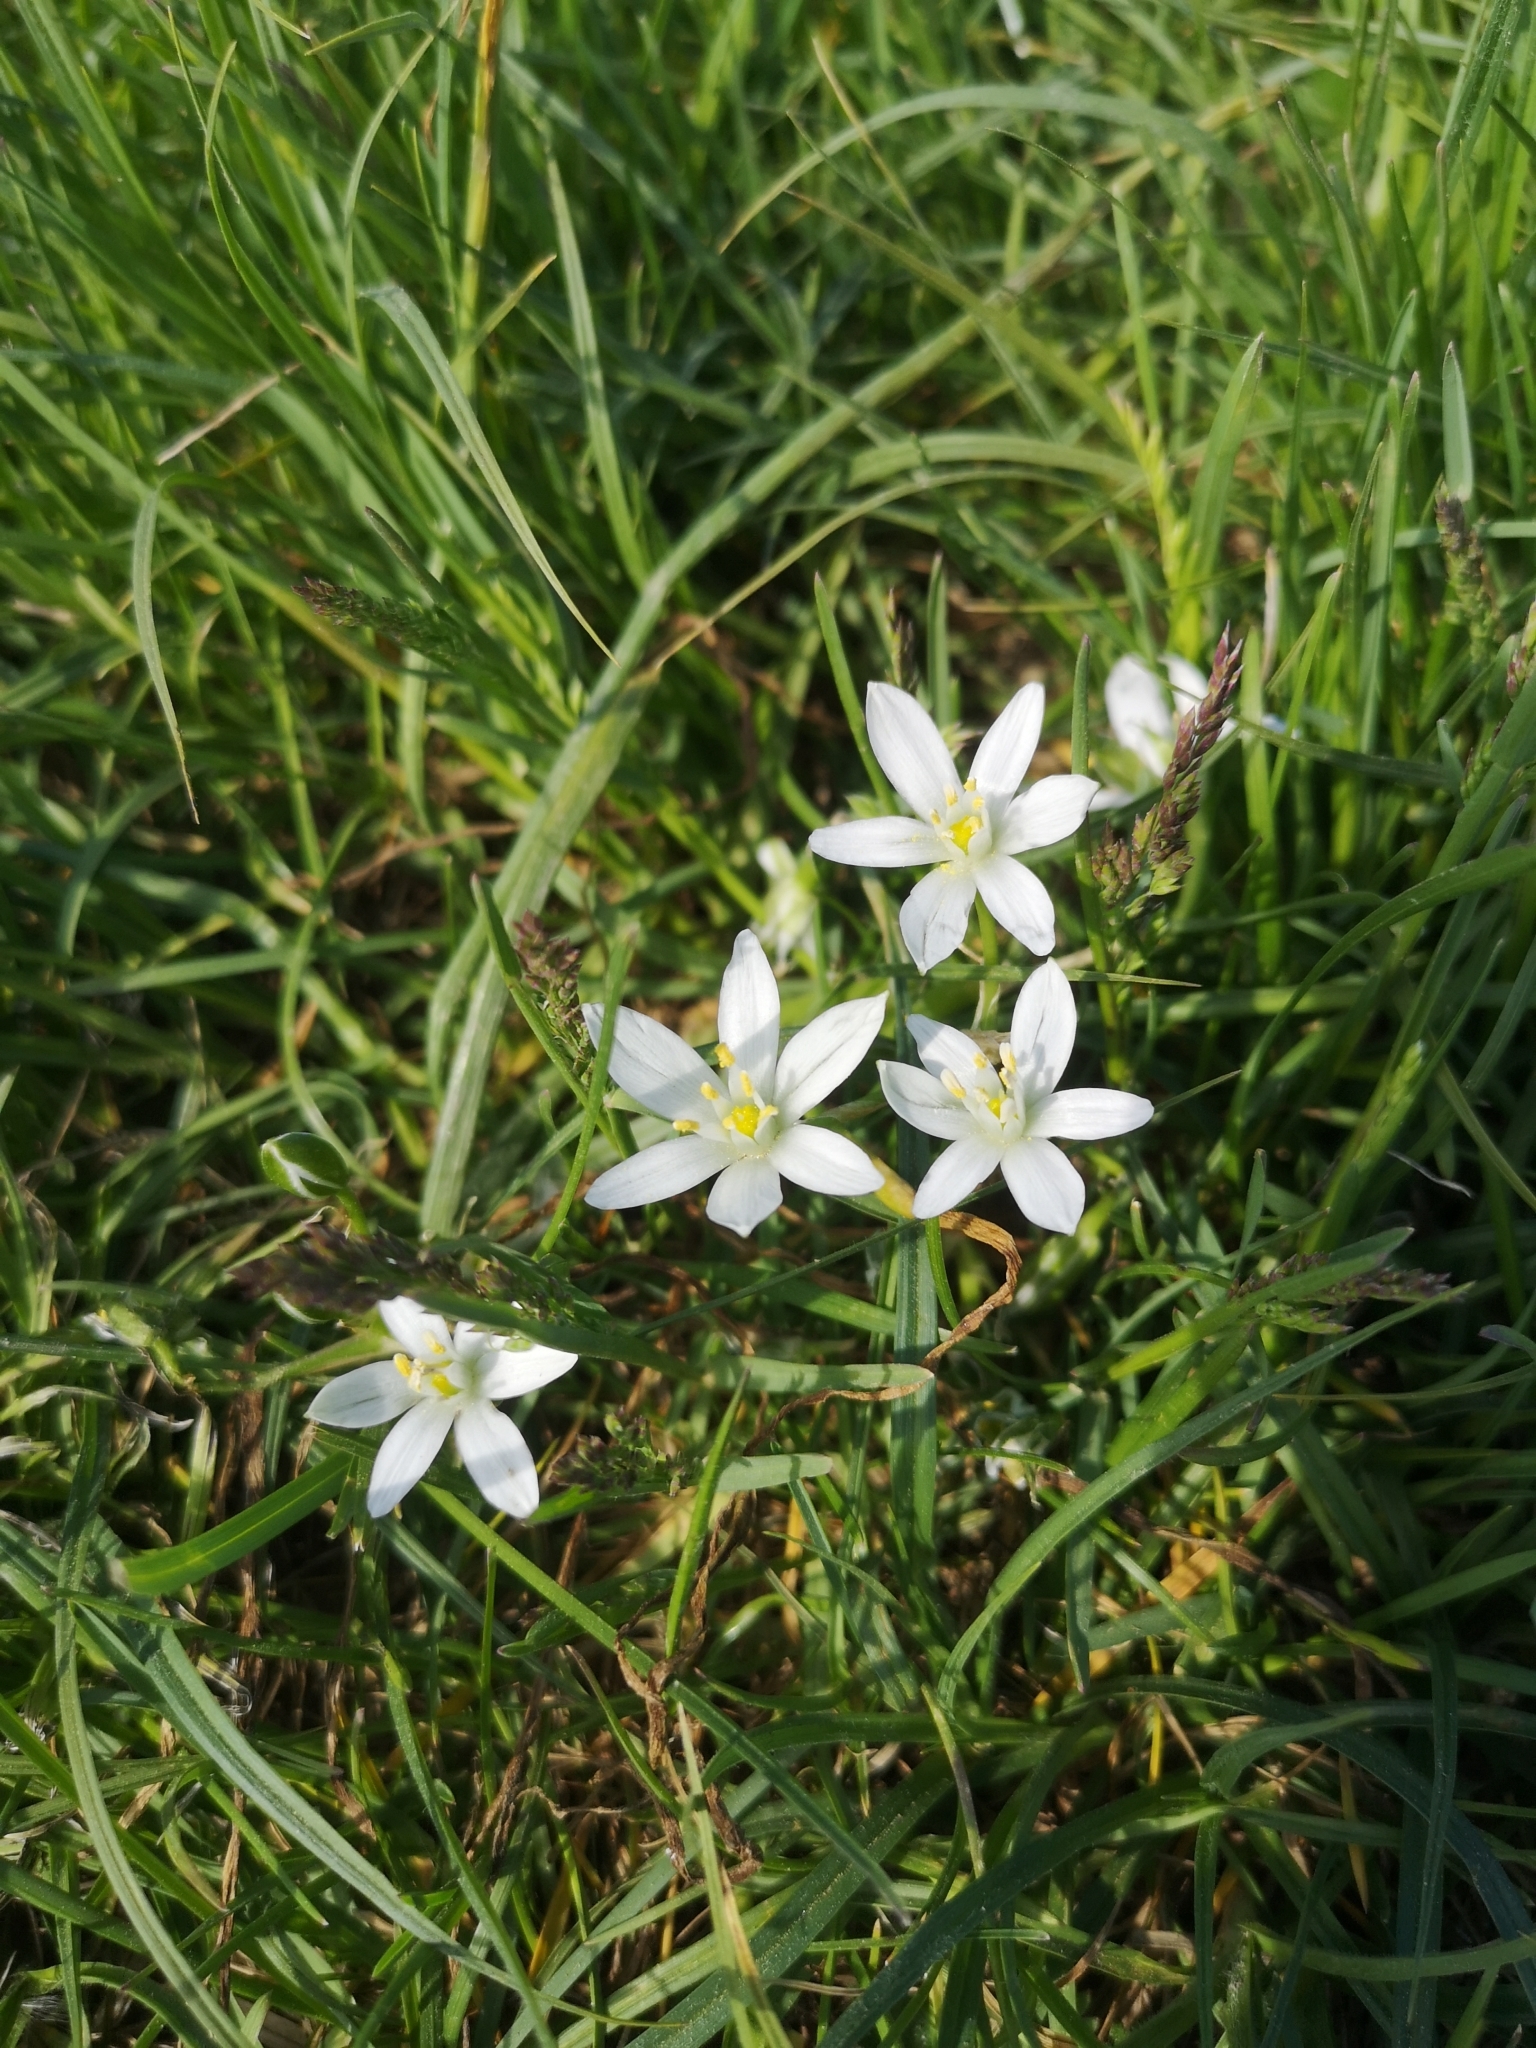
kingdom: Plantae
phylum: Tracheophyta
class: Liliopsida
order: Asparagales
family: Asparagaceae
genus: Ornithogalum
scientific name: Ornithogalum umbellatum
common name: Garden star-of-bethlehem
